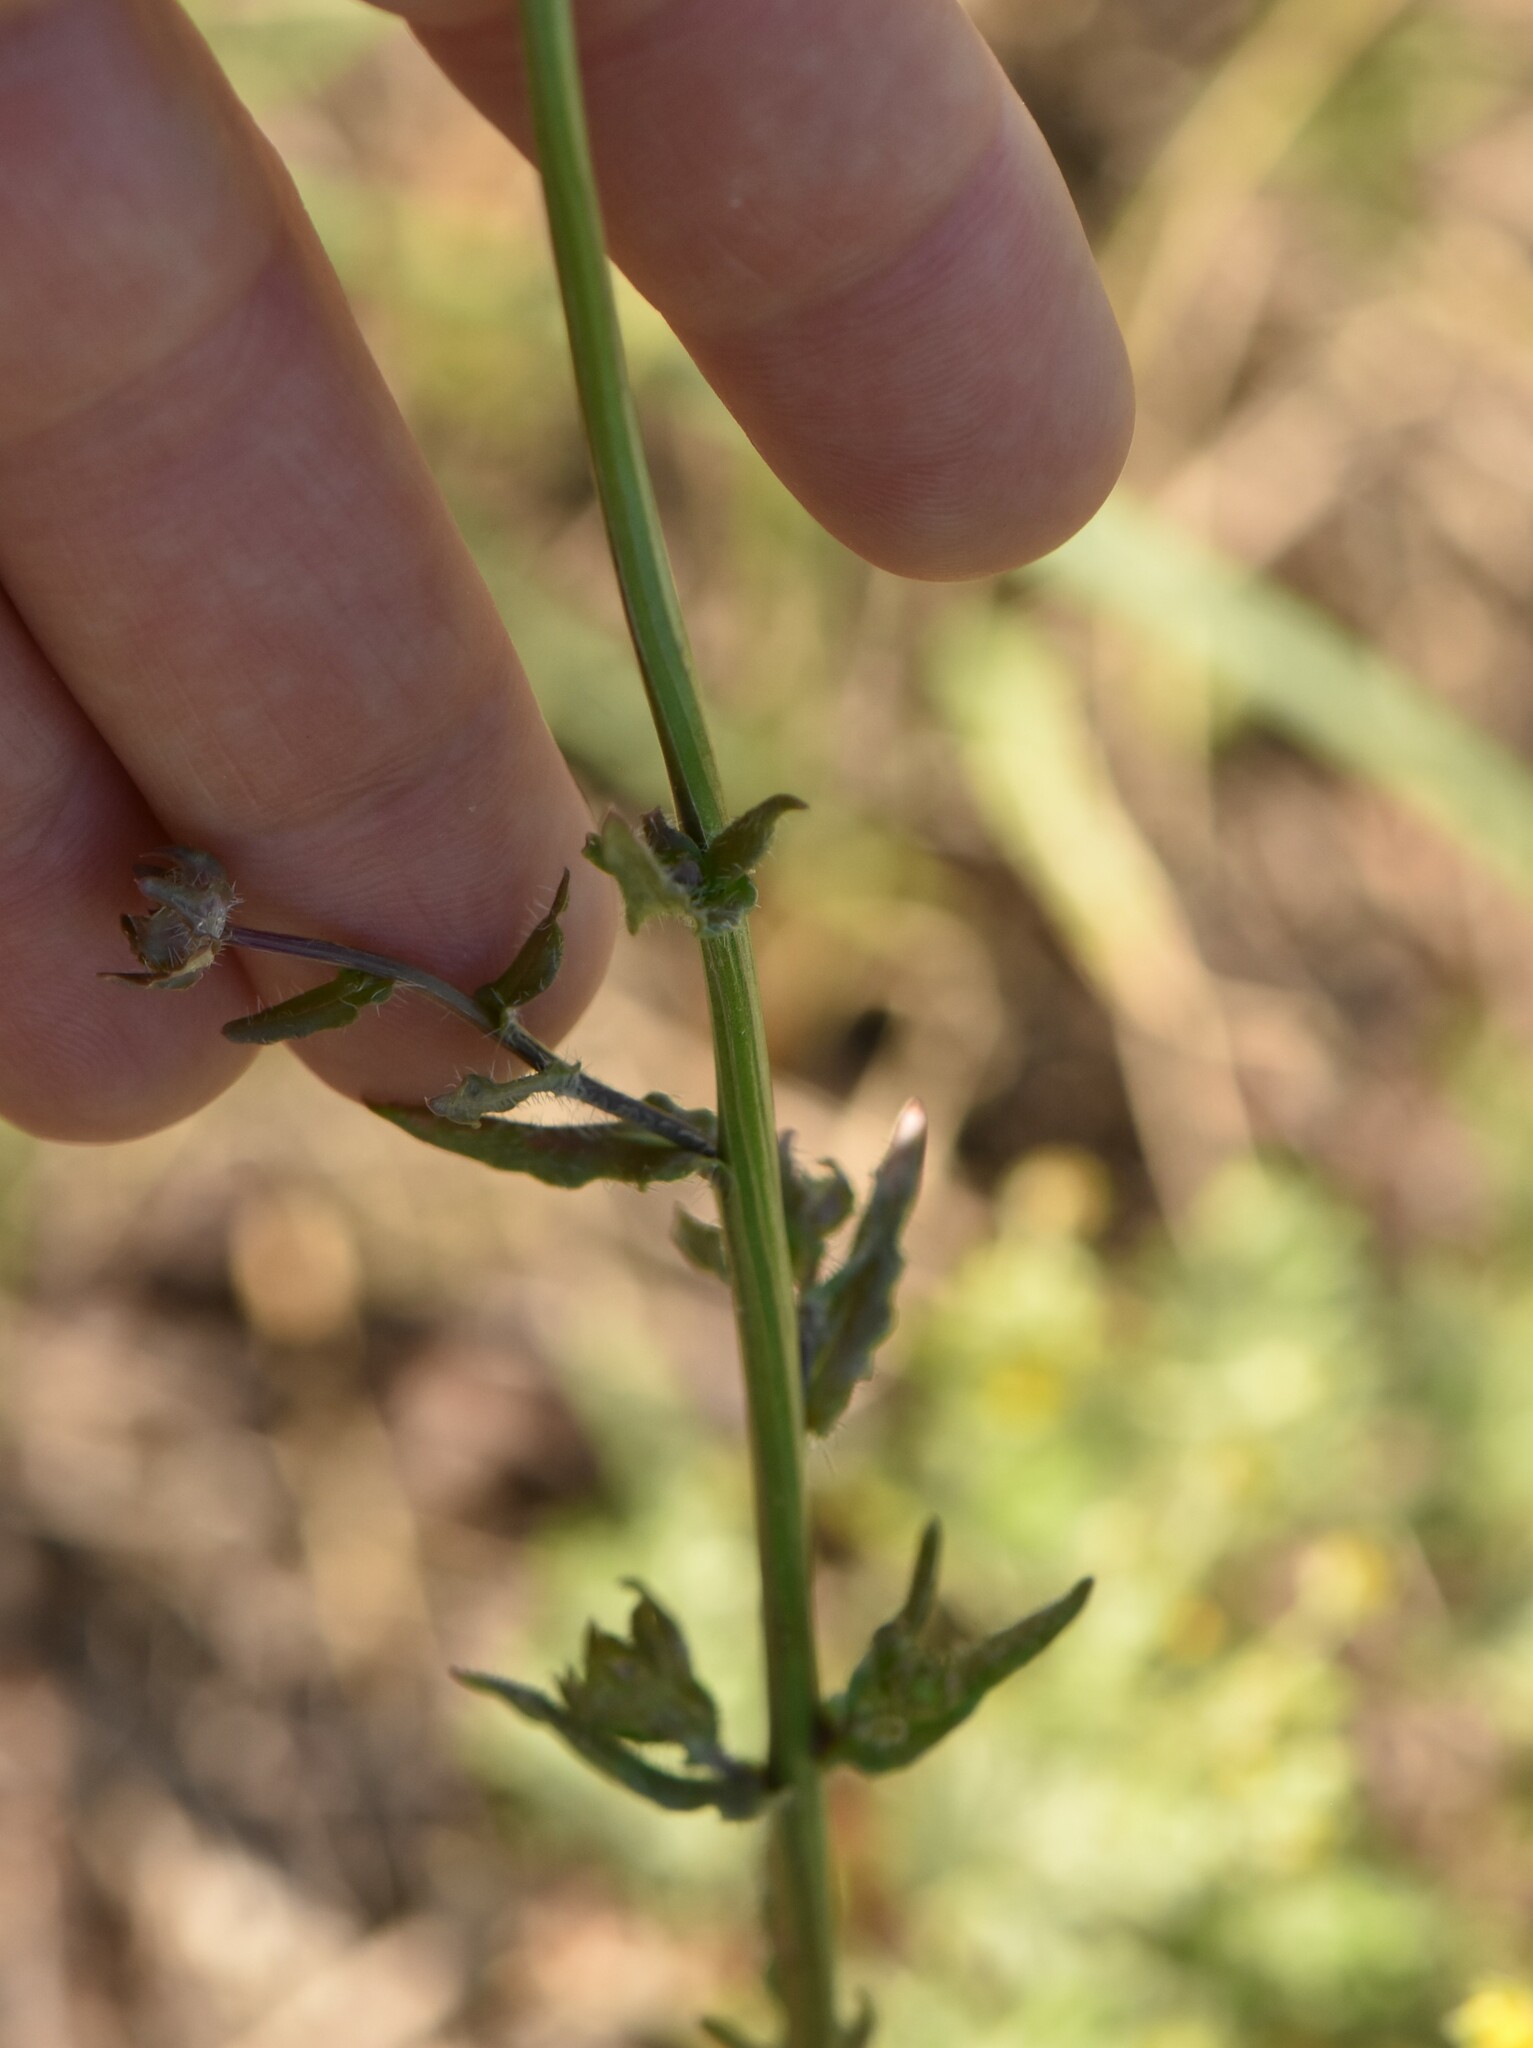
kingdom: Plantae
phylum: Tracheophyta
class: Magnoliopsida
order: Asterales
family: Campanulaceae
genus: Jasione
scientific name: Jasione montana
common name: Sheep's-bit
